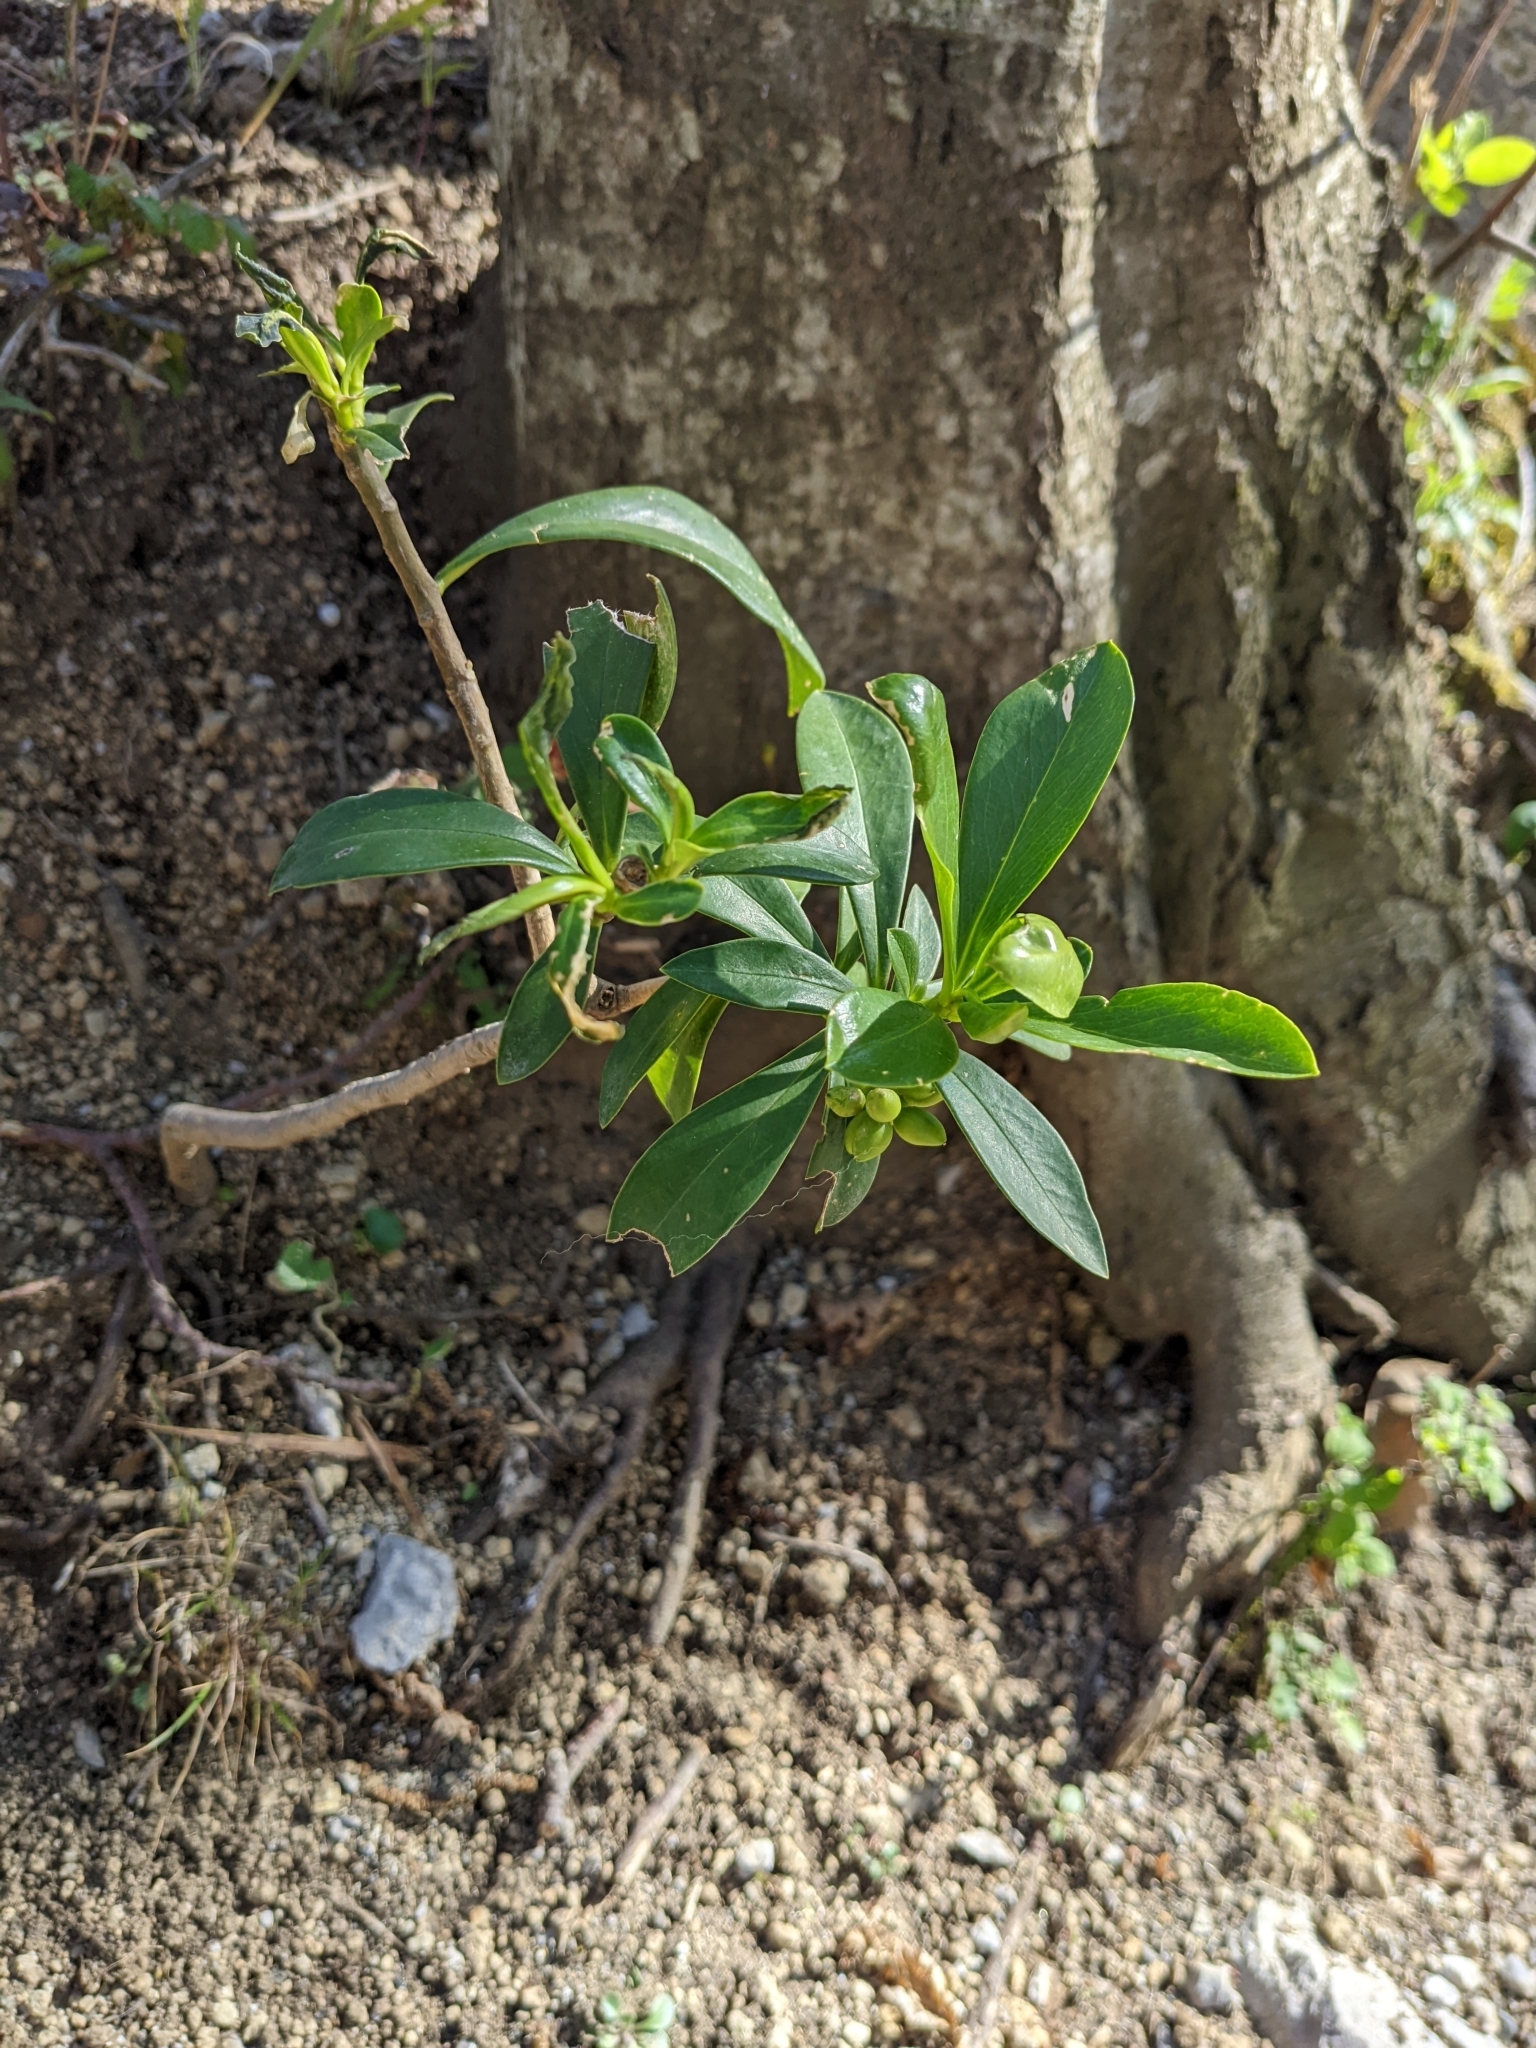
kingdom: Plantae
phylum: Tracheophyta
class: Magnoliopsida
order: Malvales
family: Thymelaeaceae
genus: Daphne
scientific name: Daphne laureola
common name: Spurge-laurel
